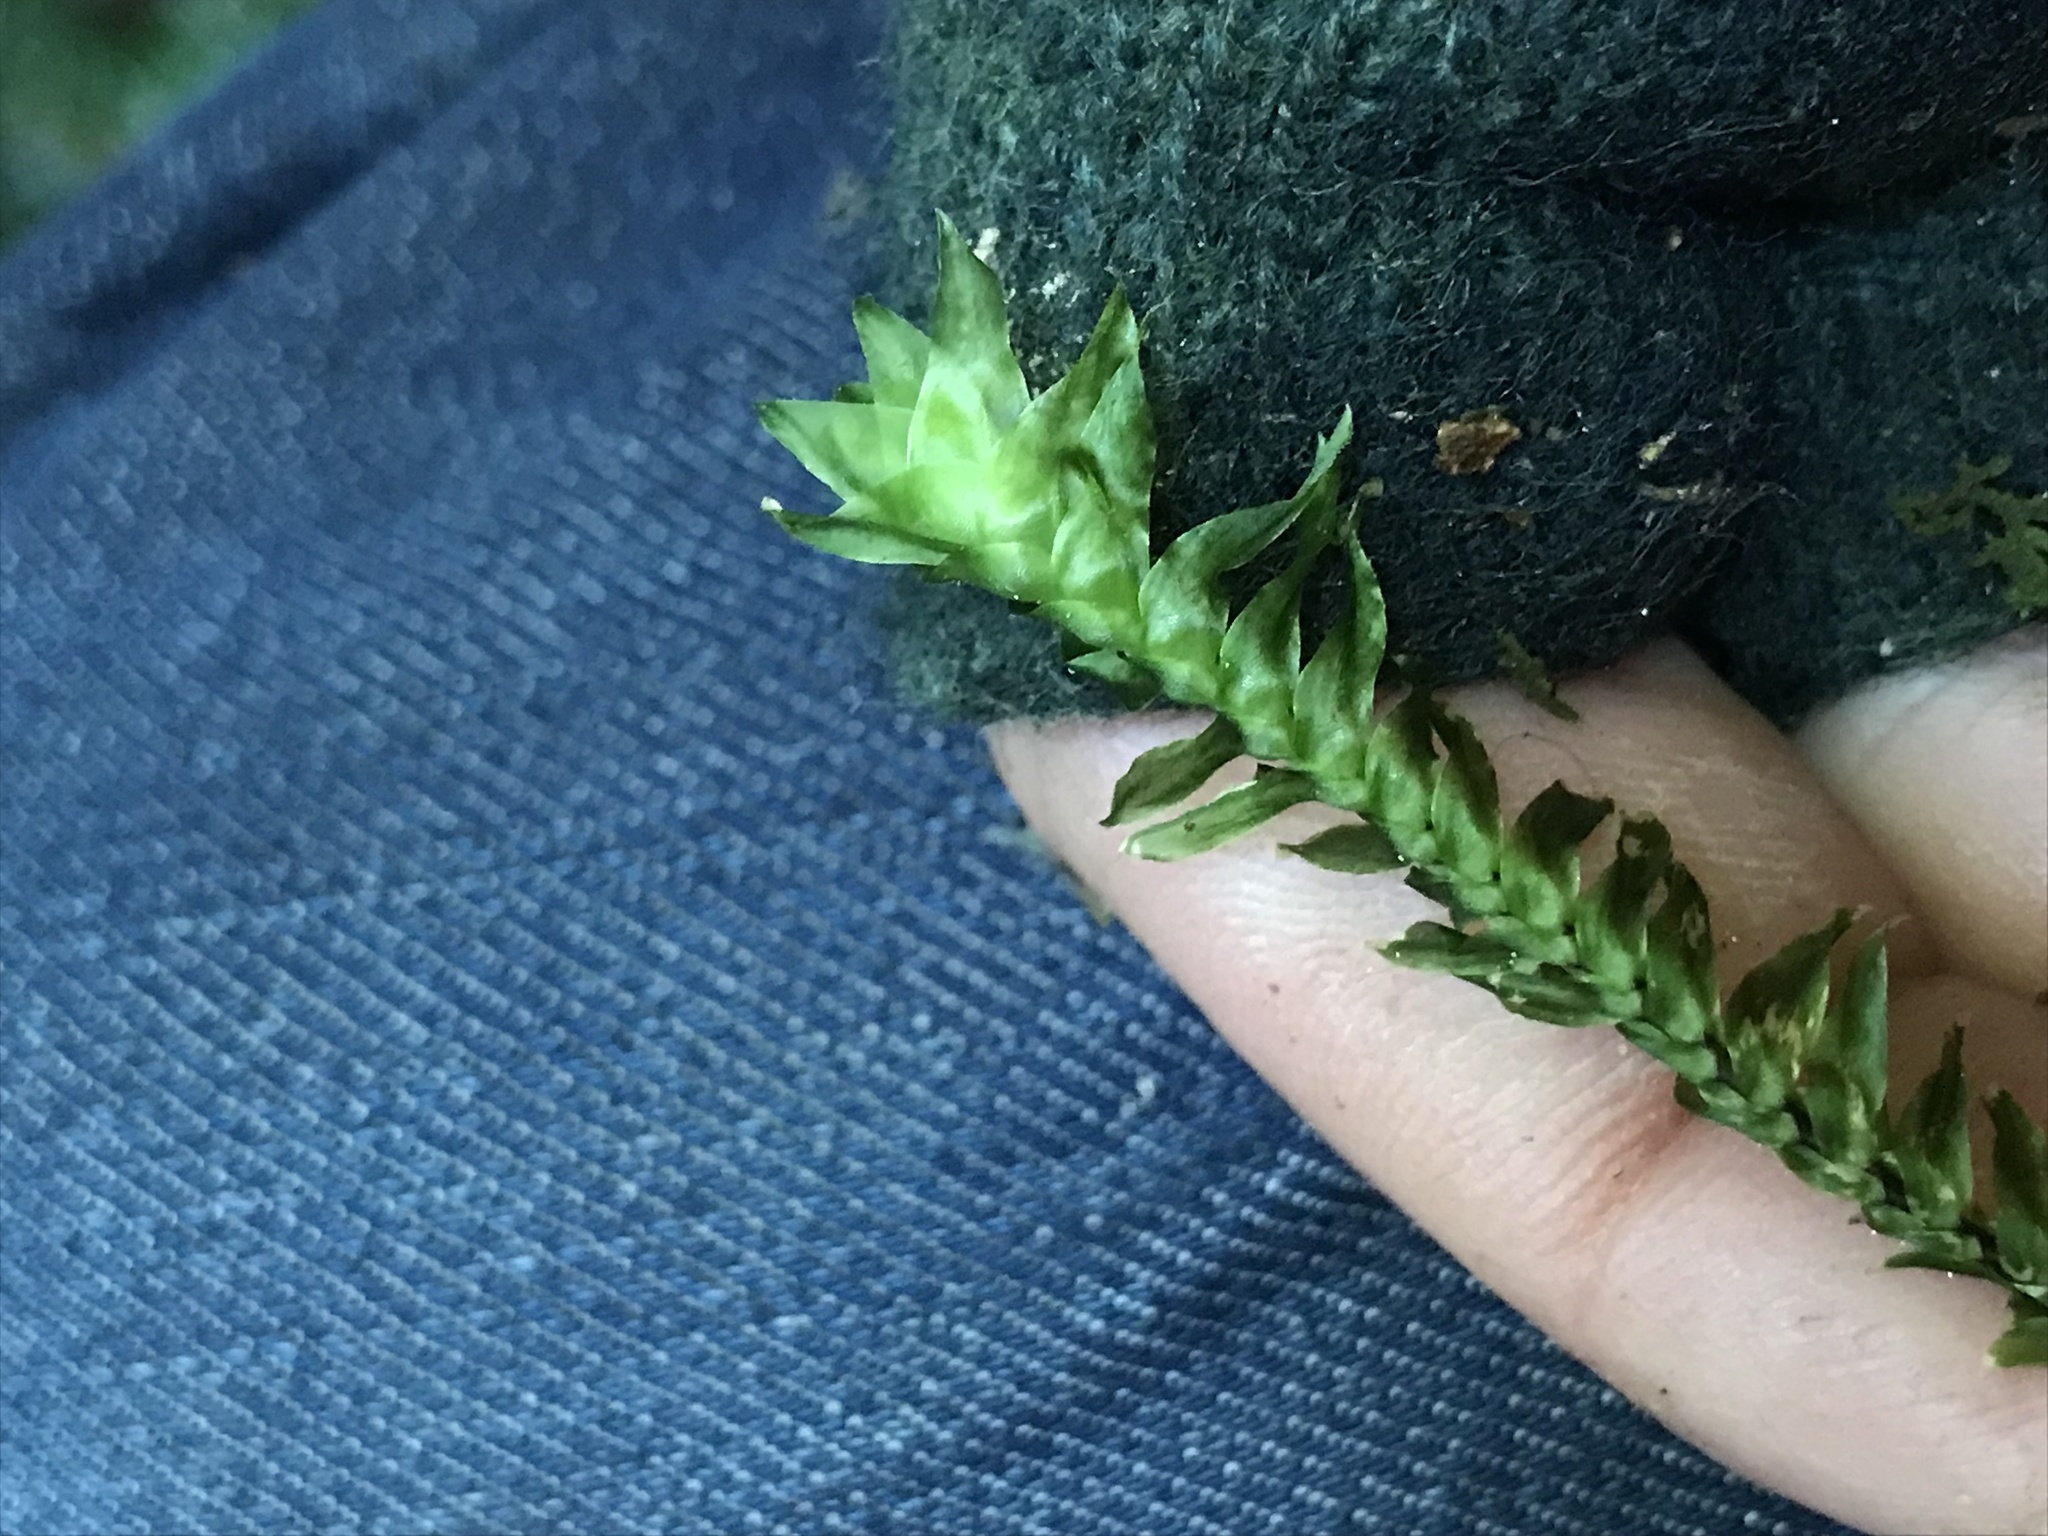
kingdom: Plantae
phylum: Bryophyta
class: Bryopsida
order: Hypopterygiales
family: Hypopterygiaceae
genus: Cyathophorum
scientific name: Cyathophorum bulbosum
